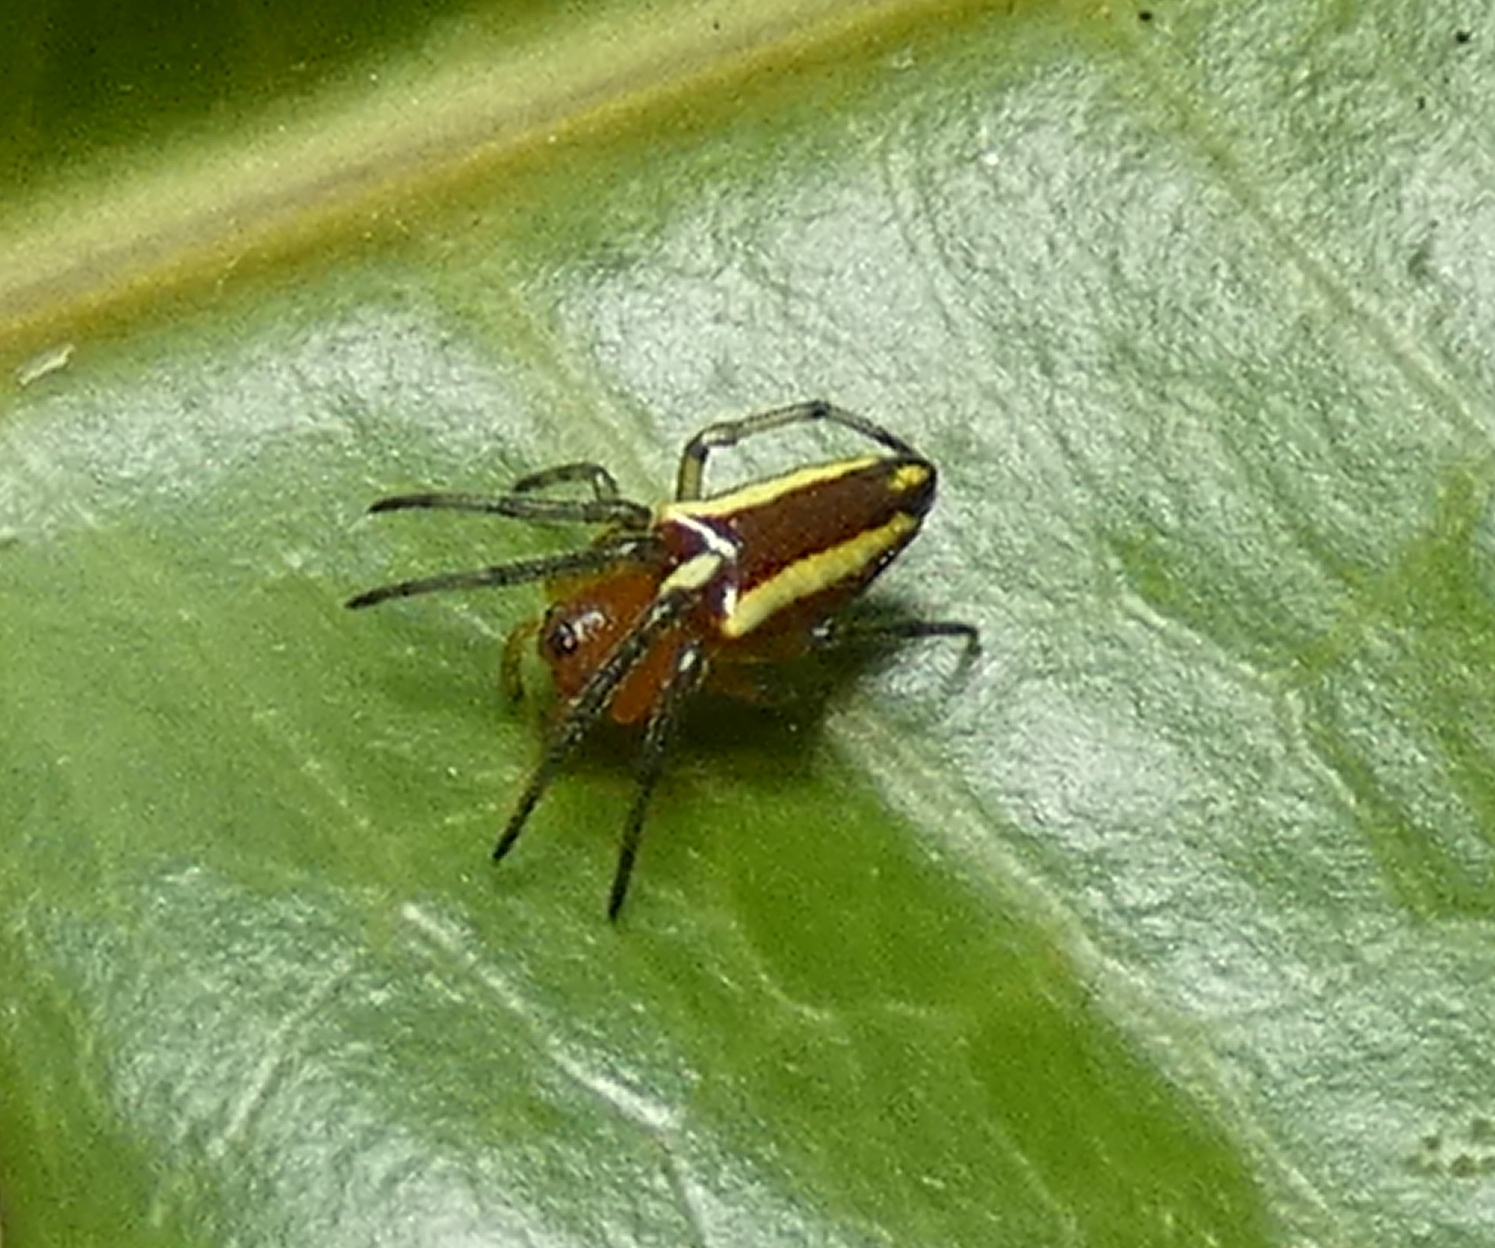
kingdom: Animalia
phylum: Arthropoda
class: Arachnida
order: Araneae
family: Araneidae
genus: Alpaida
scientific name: Alpaida bicornuta
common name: Orb weavers
